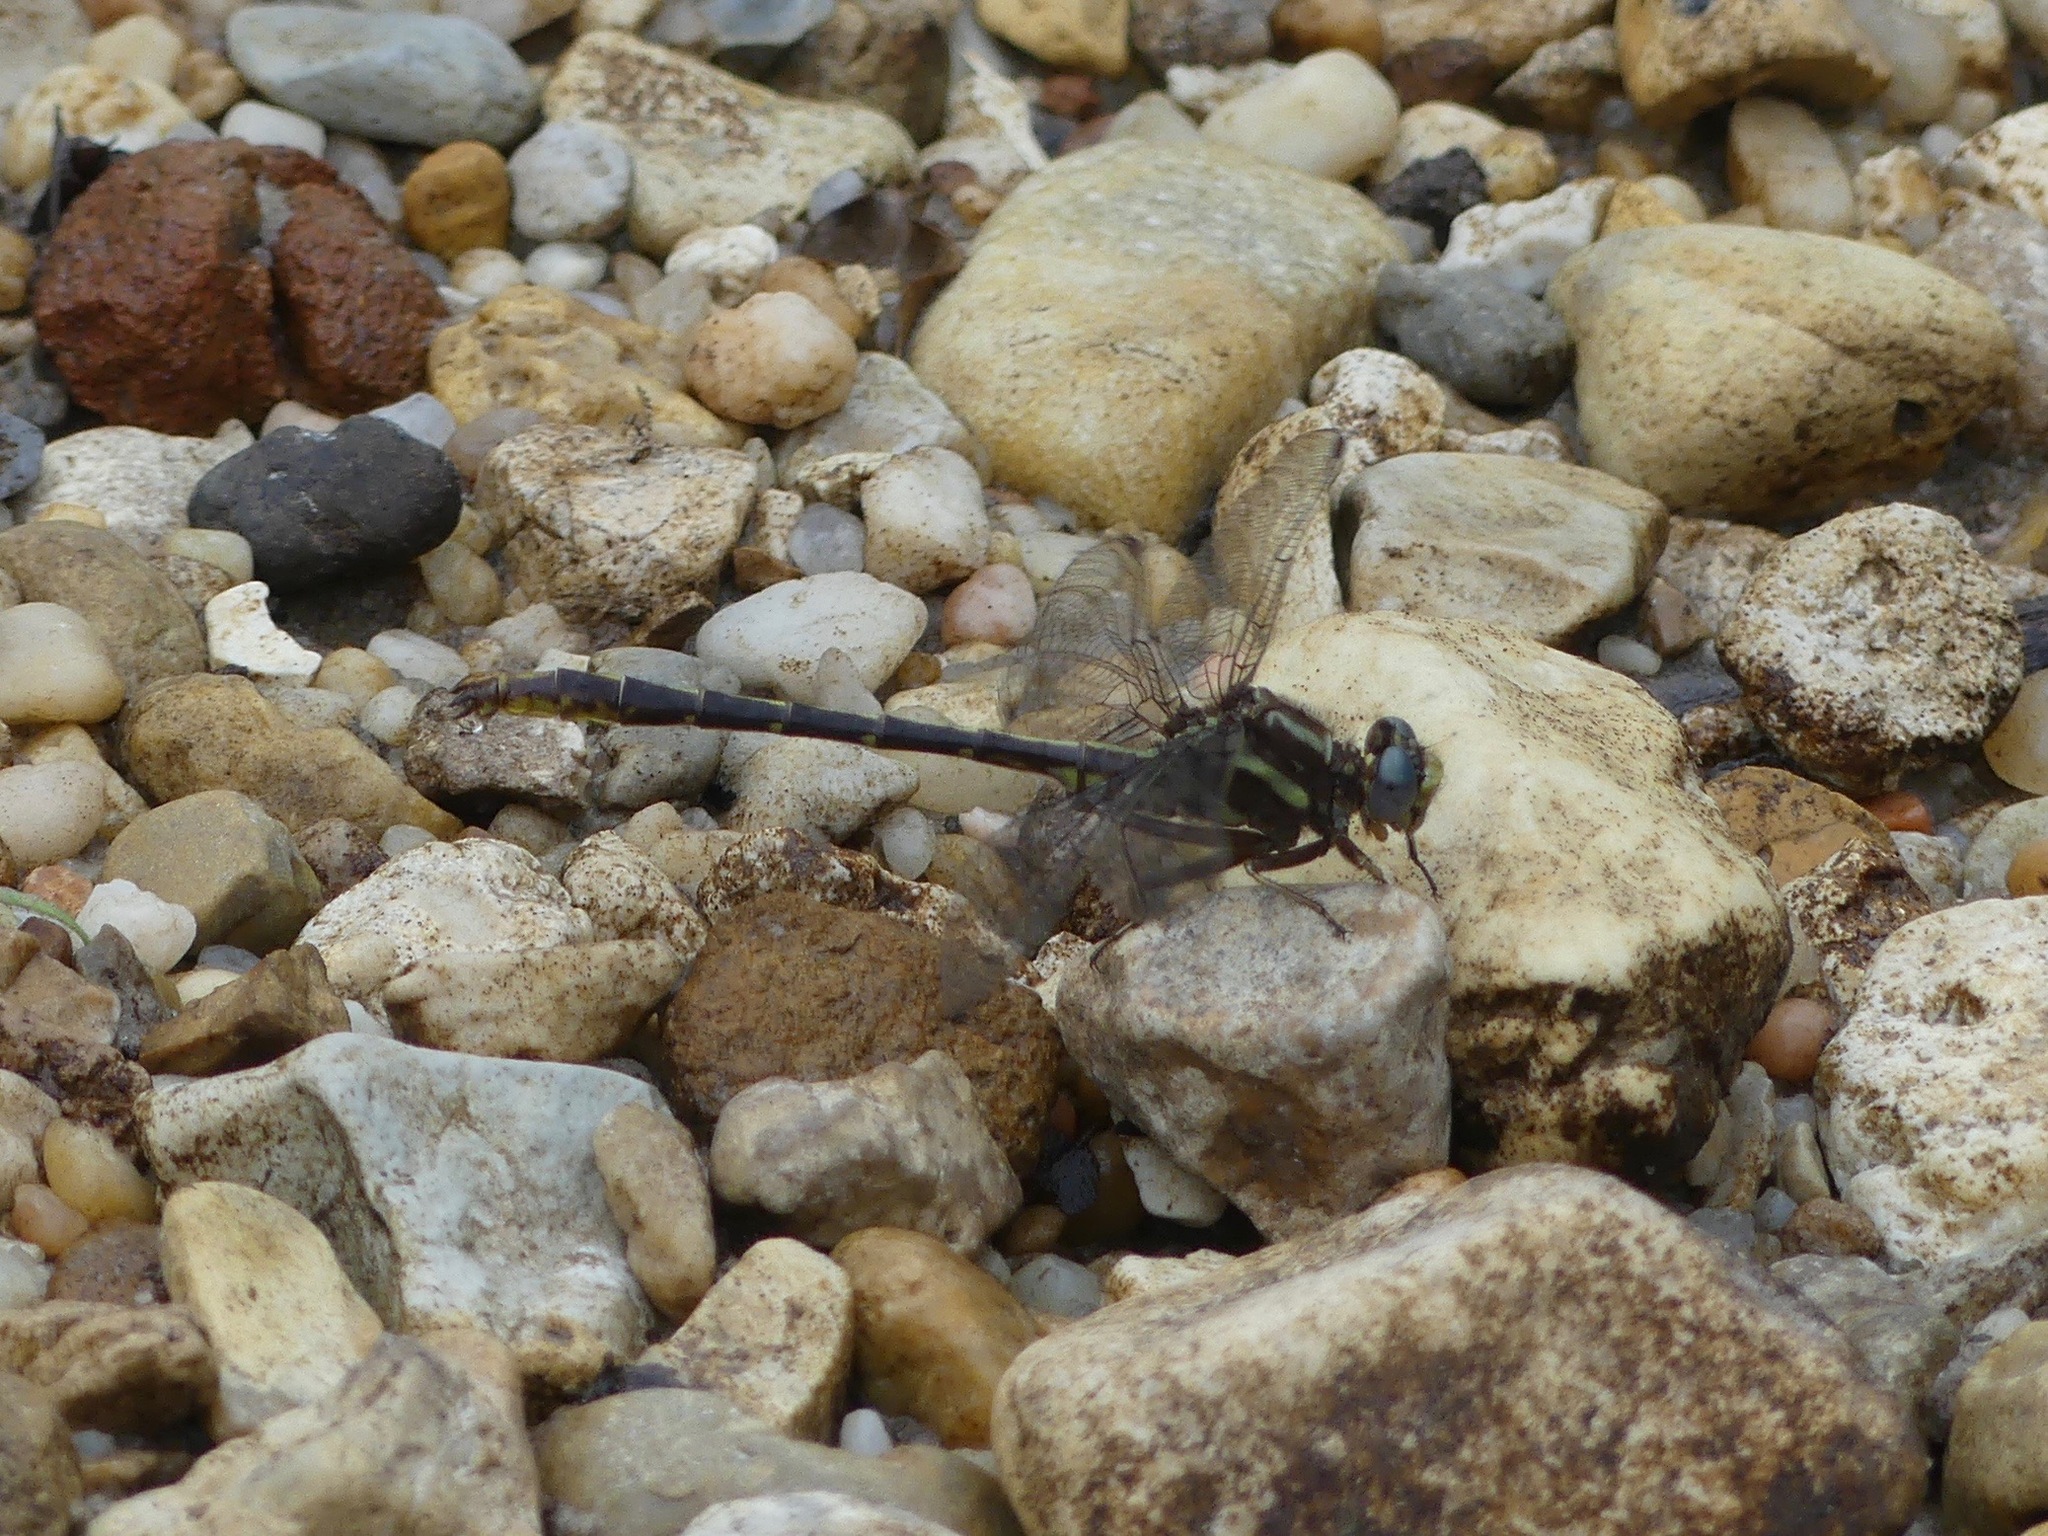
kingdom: Animalia
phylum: Arthropoda
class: Insecta
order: Odonata
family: Gomphidae
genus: Phanogomphus
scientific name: Phanogomphus lividus
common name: Ashy clubtail
